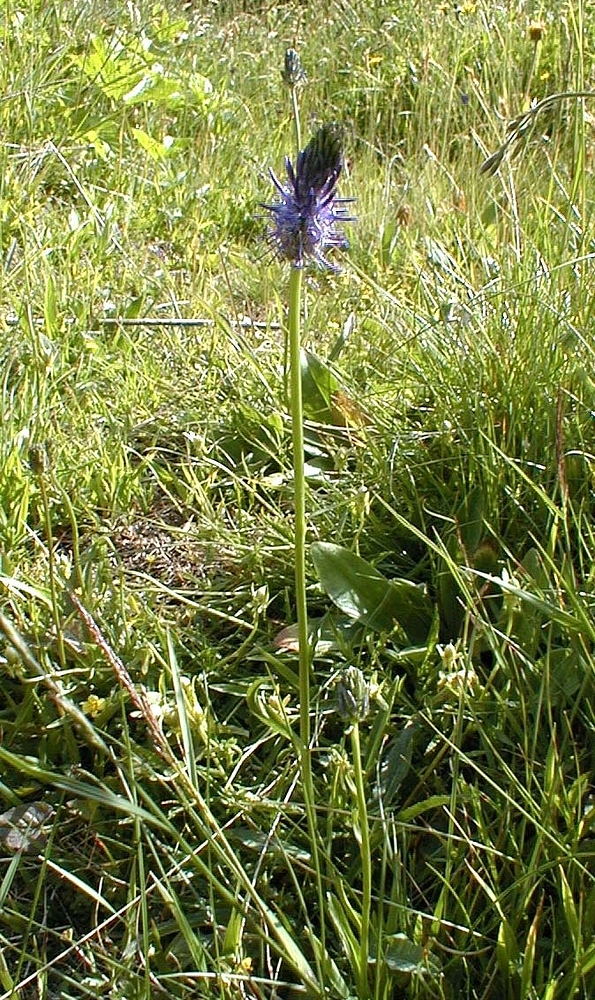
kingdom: Plantae
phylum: Tracheophyta
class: Magnoliopsida
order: Asterales
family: Campanulaceae
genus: Phyteuma
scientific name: Phyteuma betonicifolium
